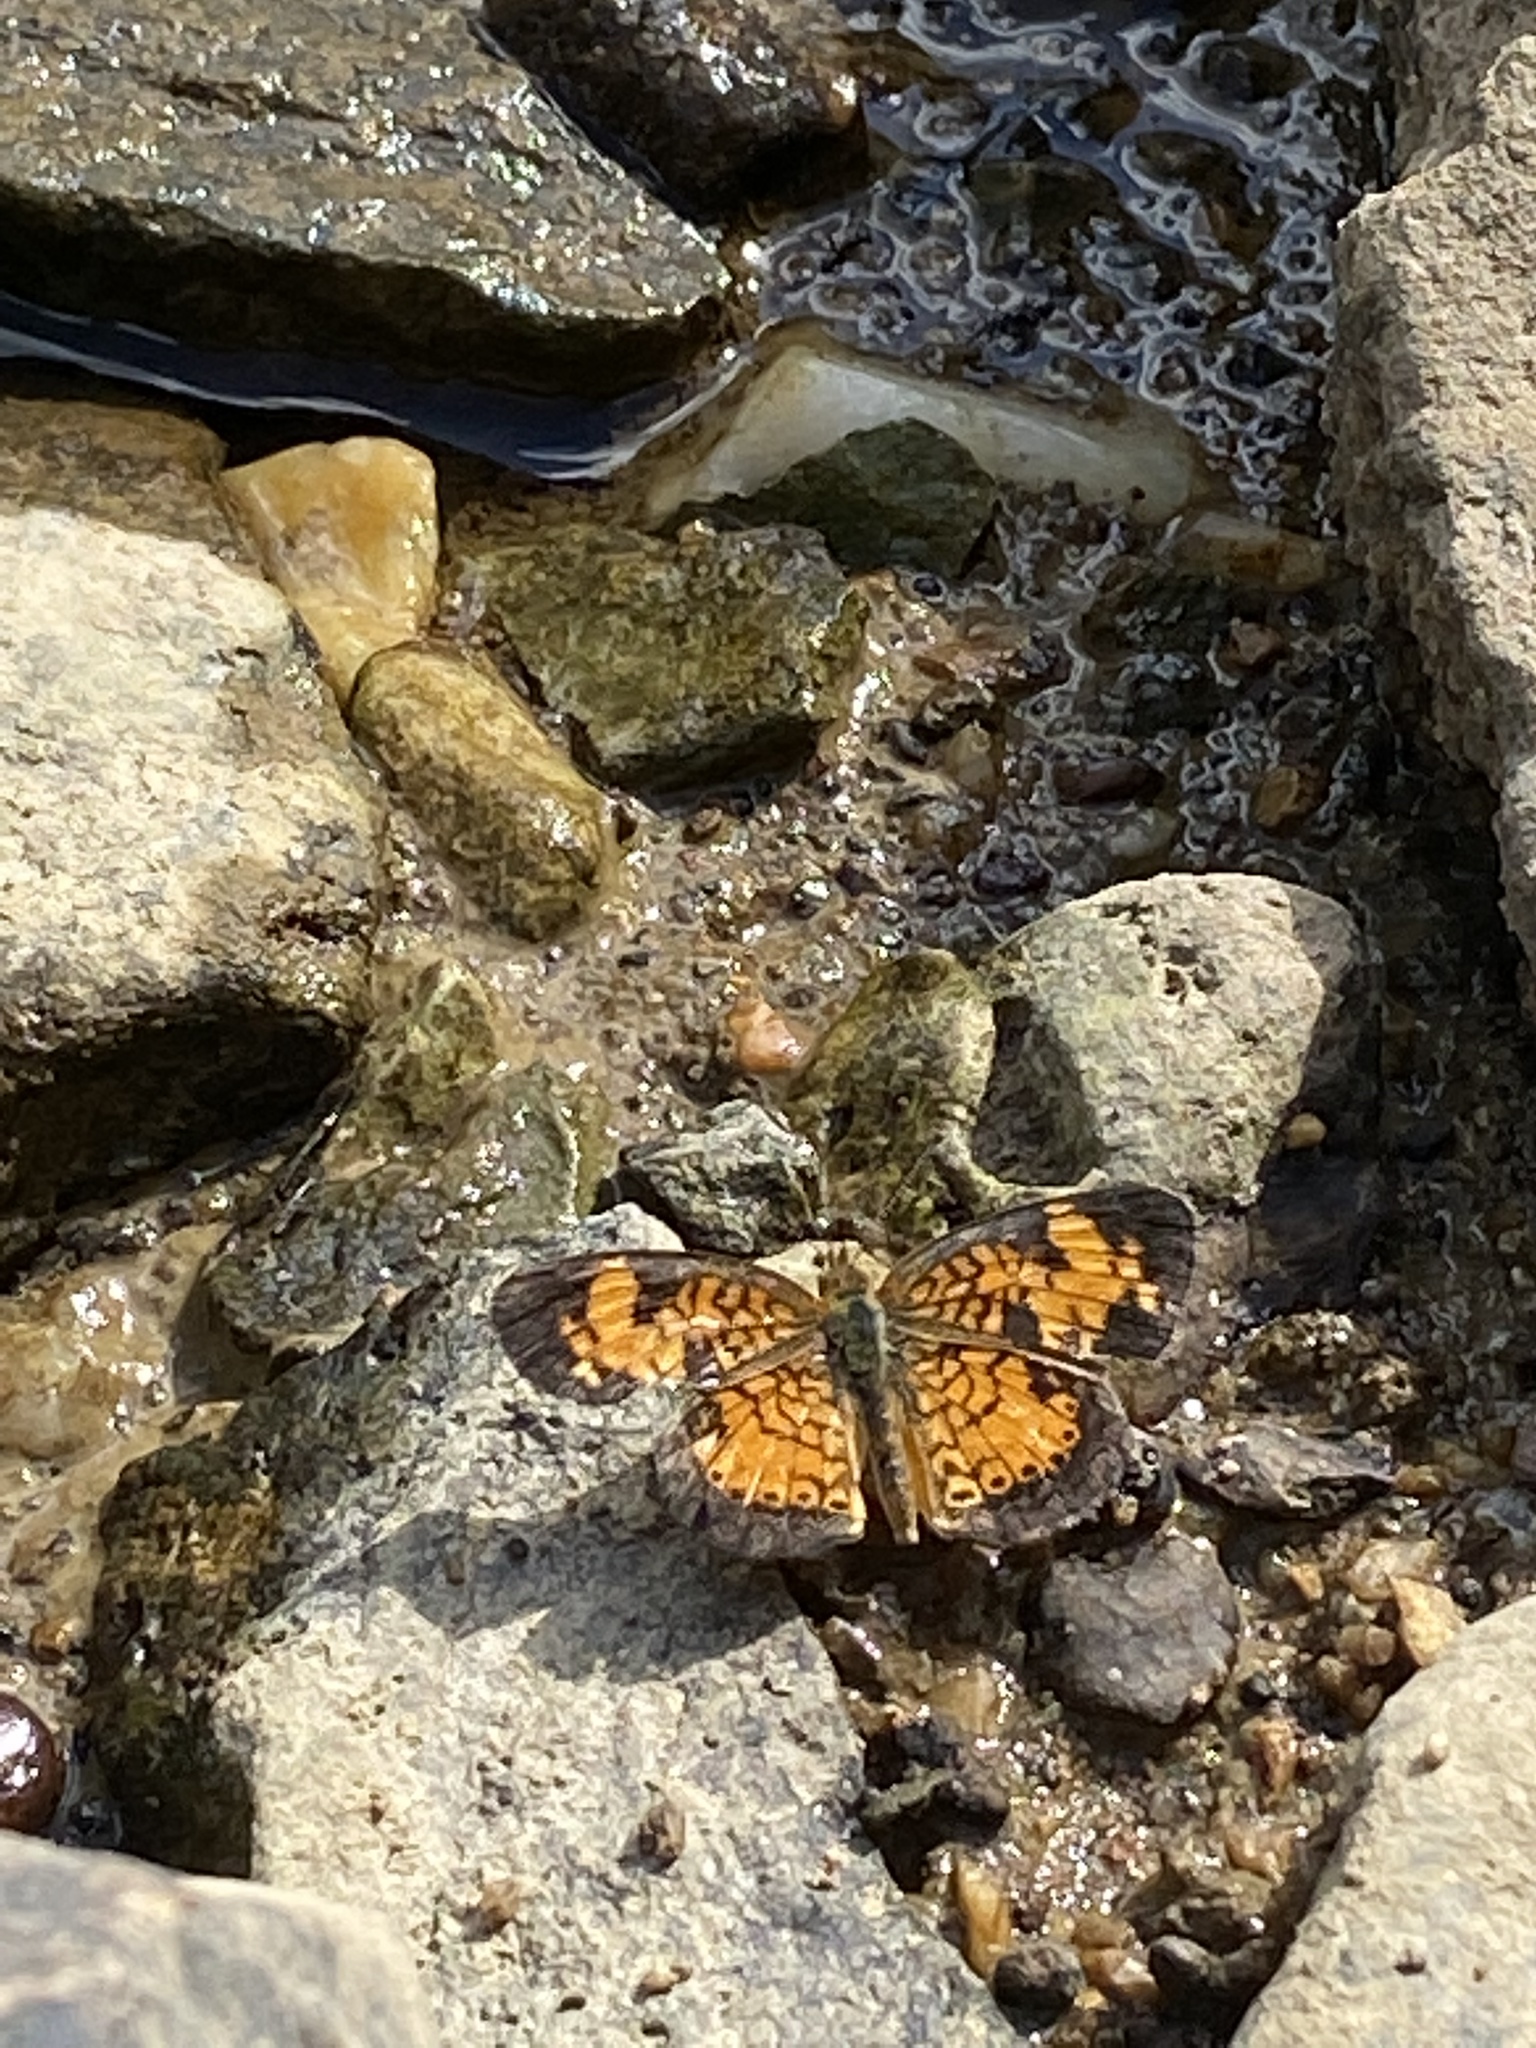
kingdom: Animalia
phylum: Arthropoda
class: Insecta
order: Lepidoptera
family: Nymphalidae
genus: Phyciodes
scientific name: Phyciodes tharos
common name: Pearl crescent
